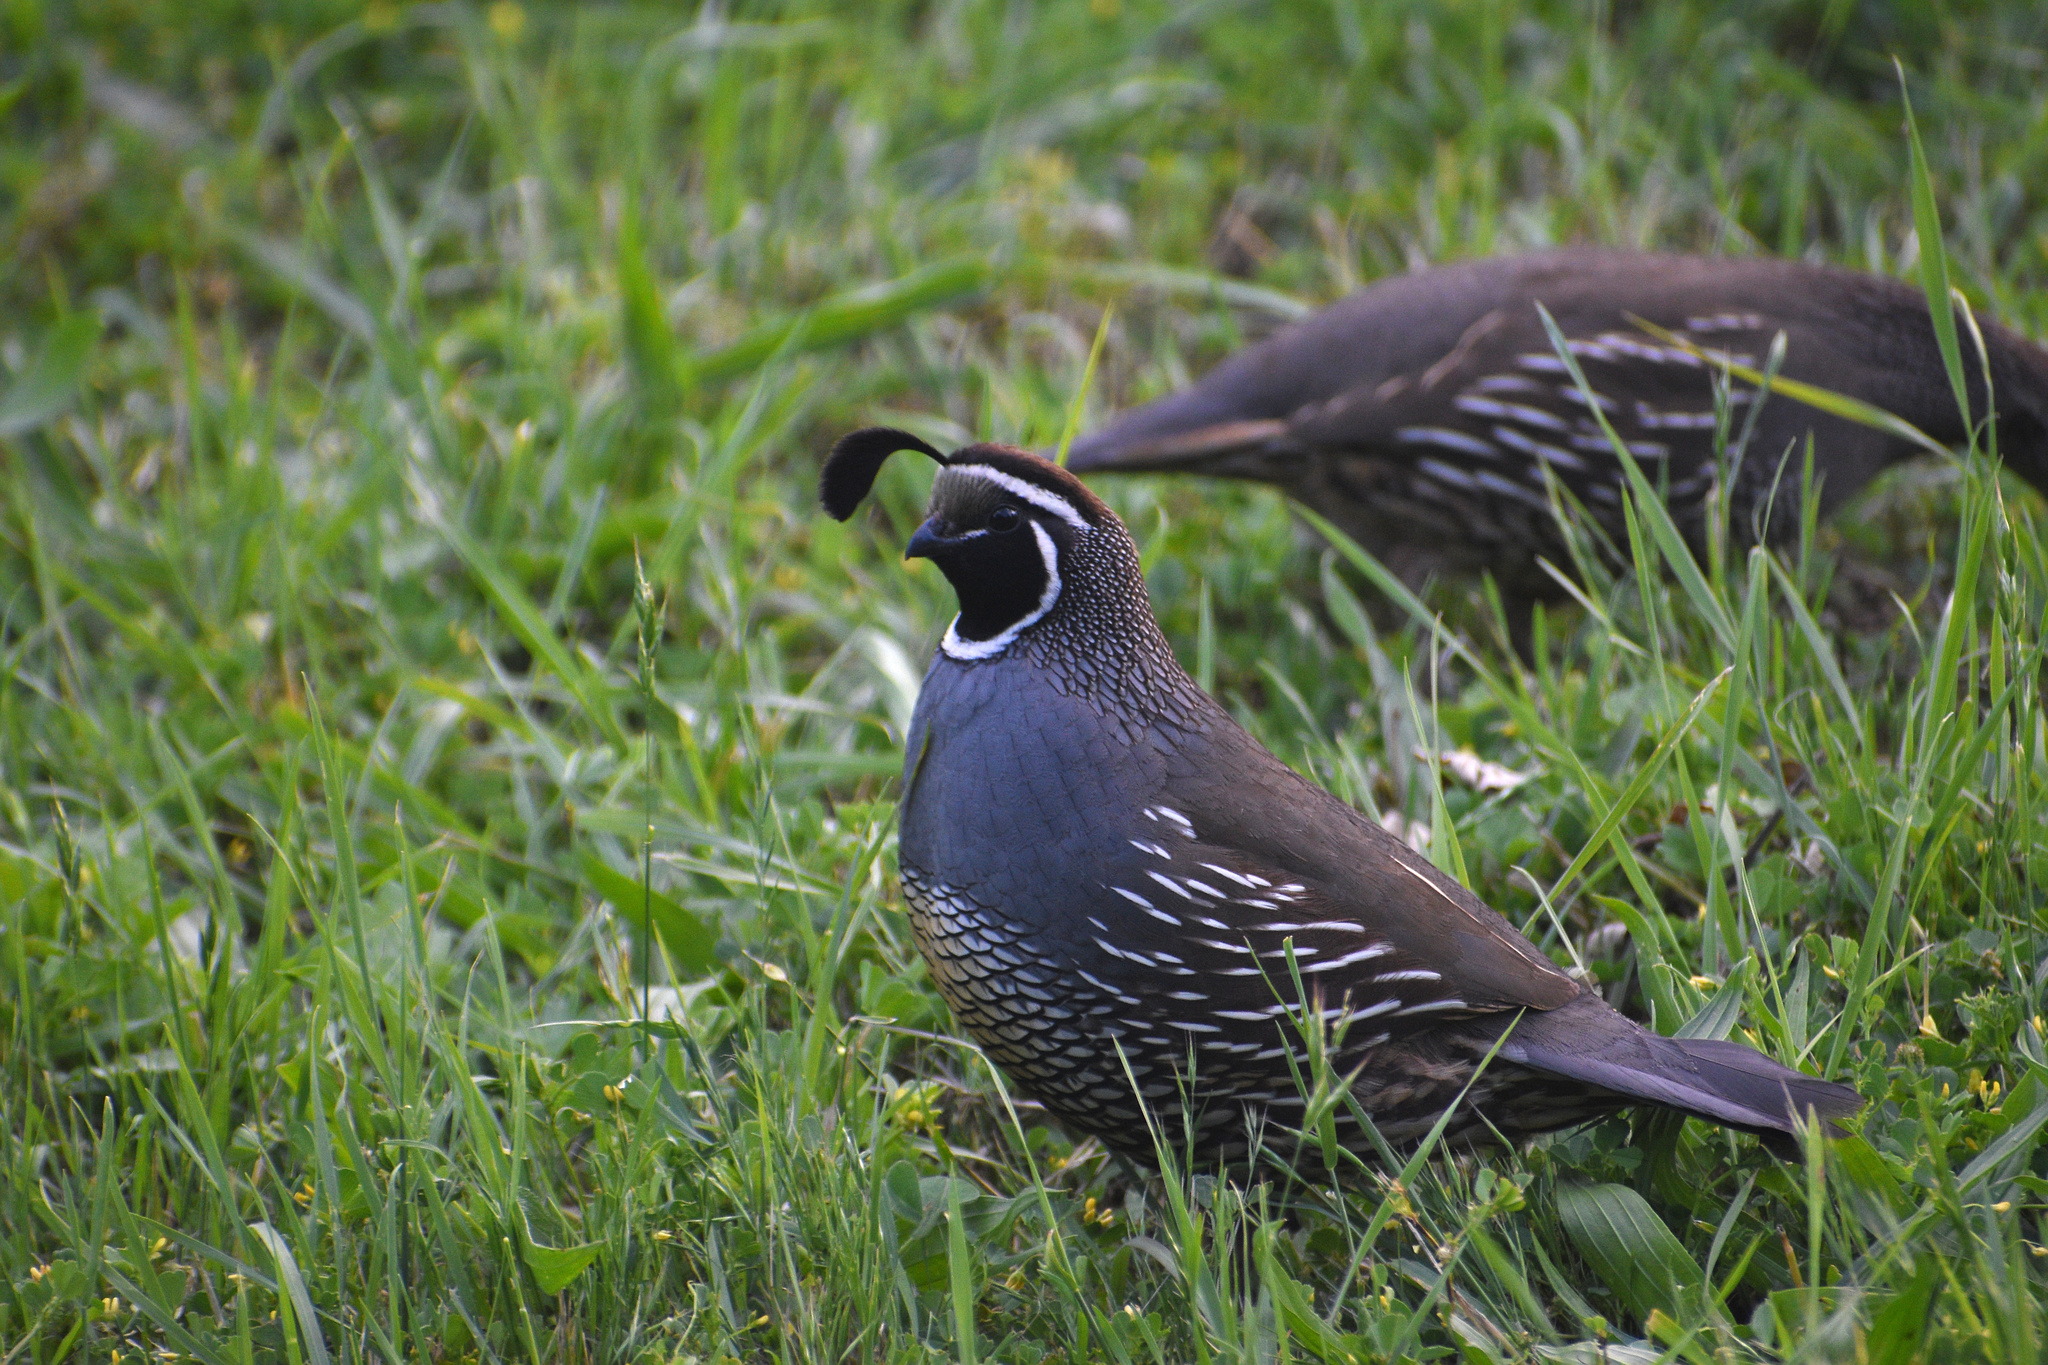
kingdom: Animalia
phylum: Chordata
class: Aves
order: Galliformes
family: Odontophoridae
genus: Callipepla
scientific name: Callipepla californica
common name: California quail
